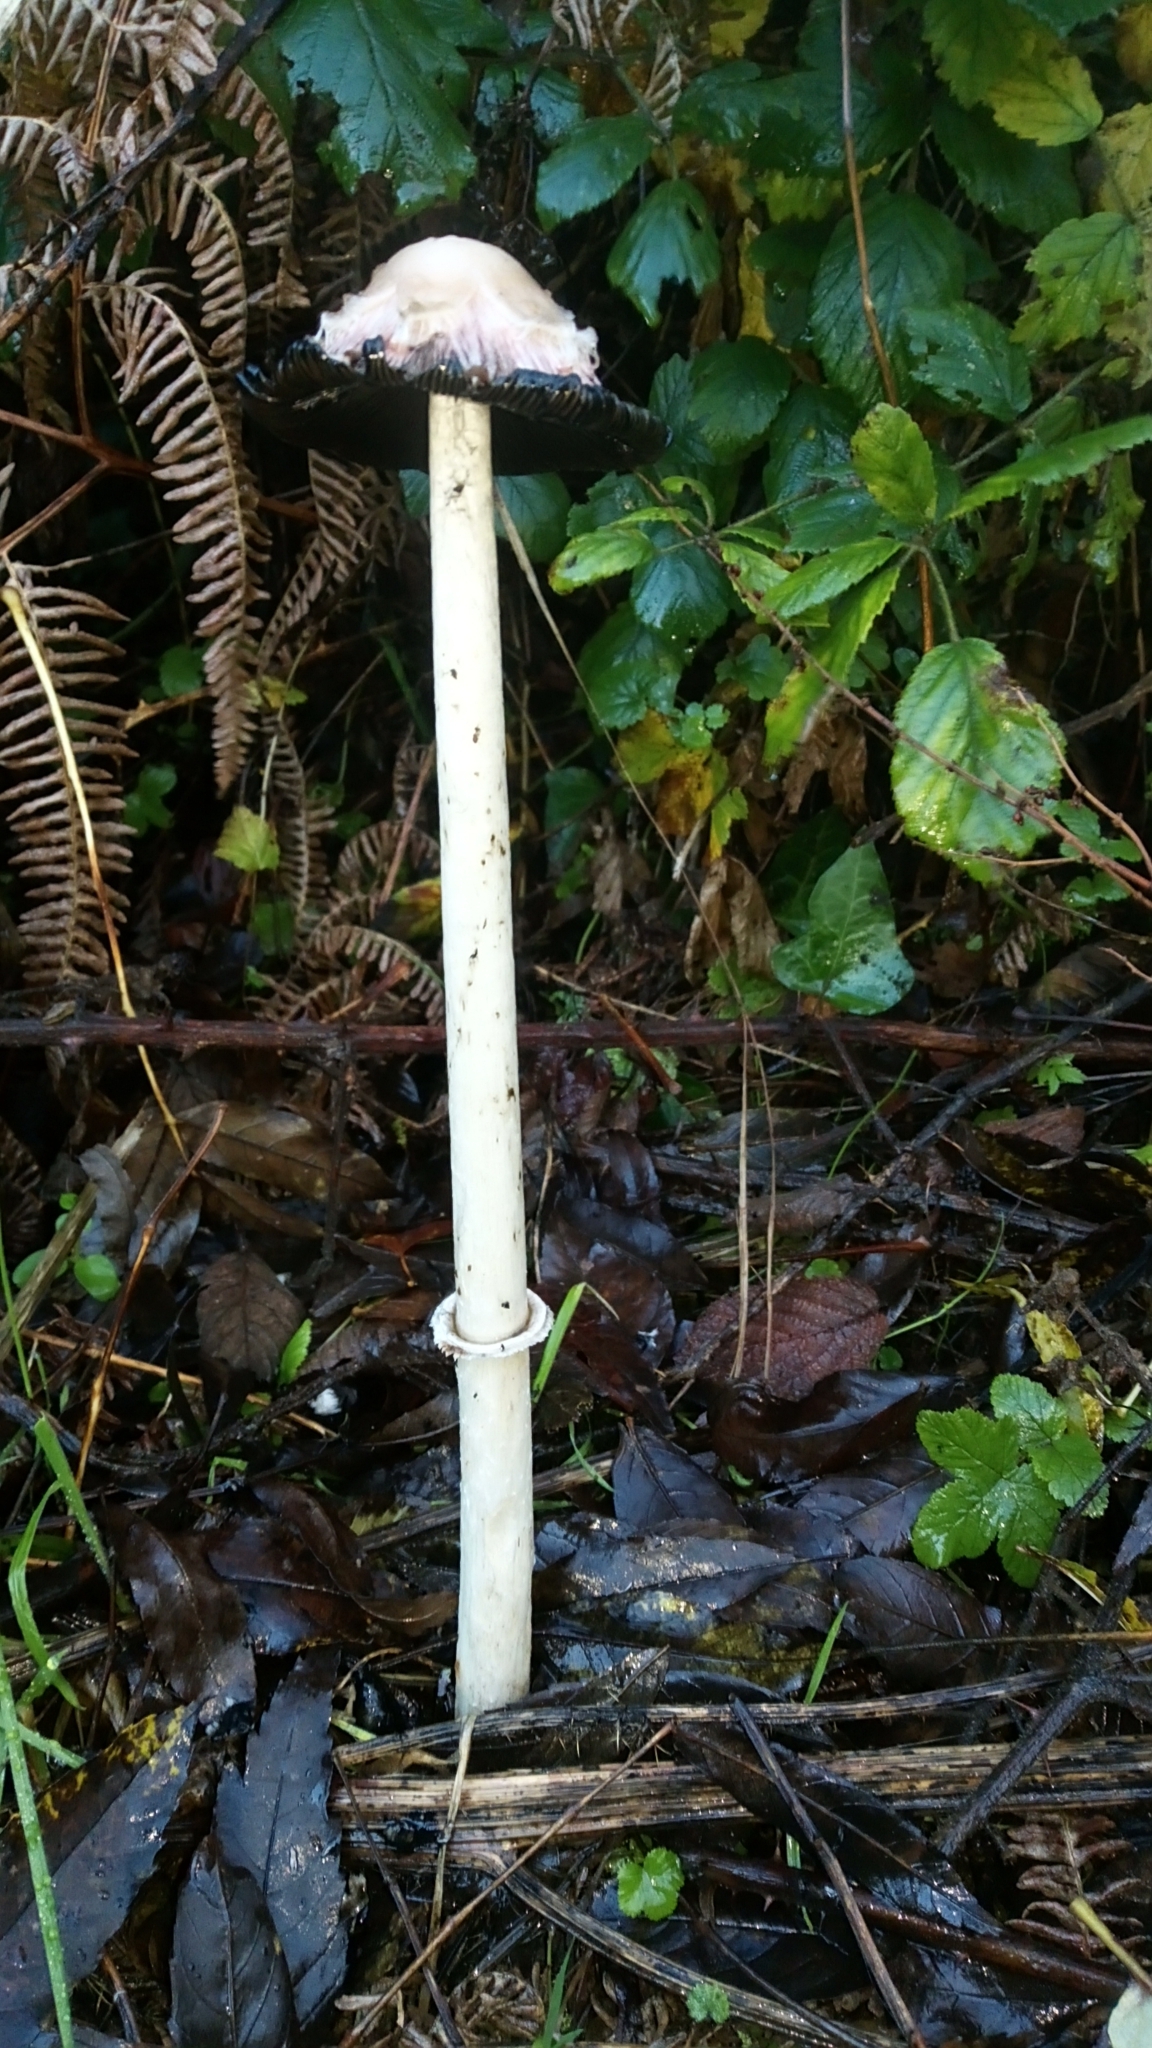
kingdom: Fungi
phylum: Basidiomycota
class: Agaricomycetes
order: Agaricales
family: Agaricaceae
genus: Coprinus
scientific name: Coprinus comatus
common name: Lawyer's wig
